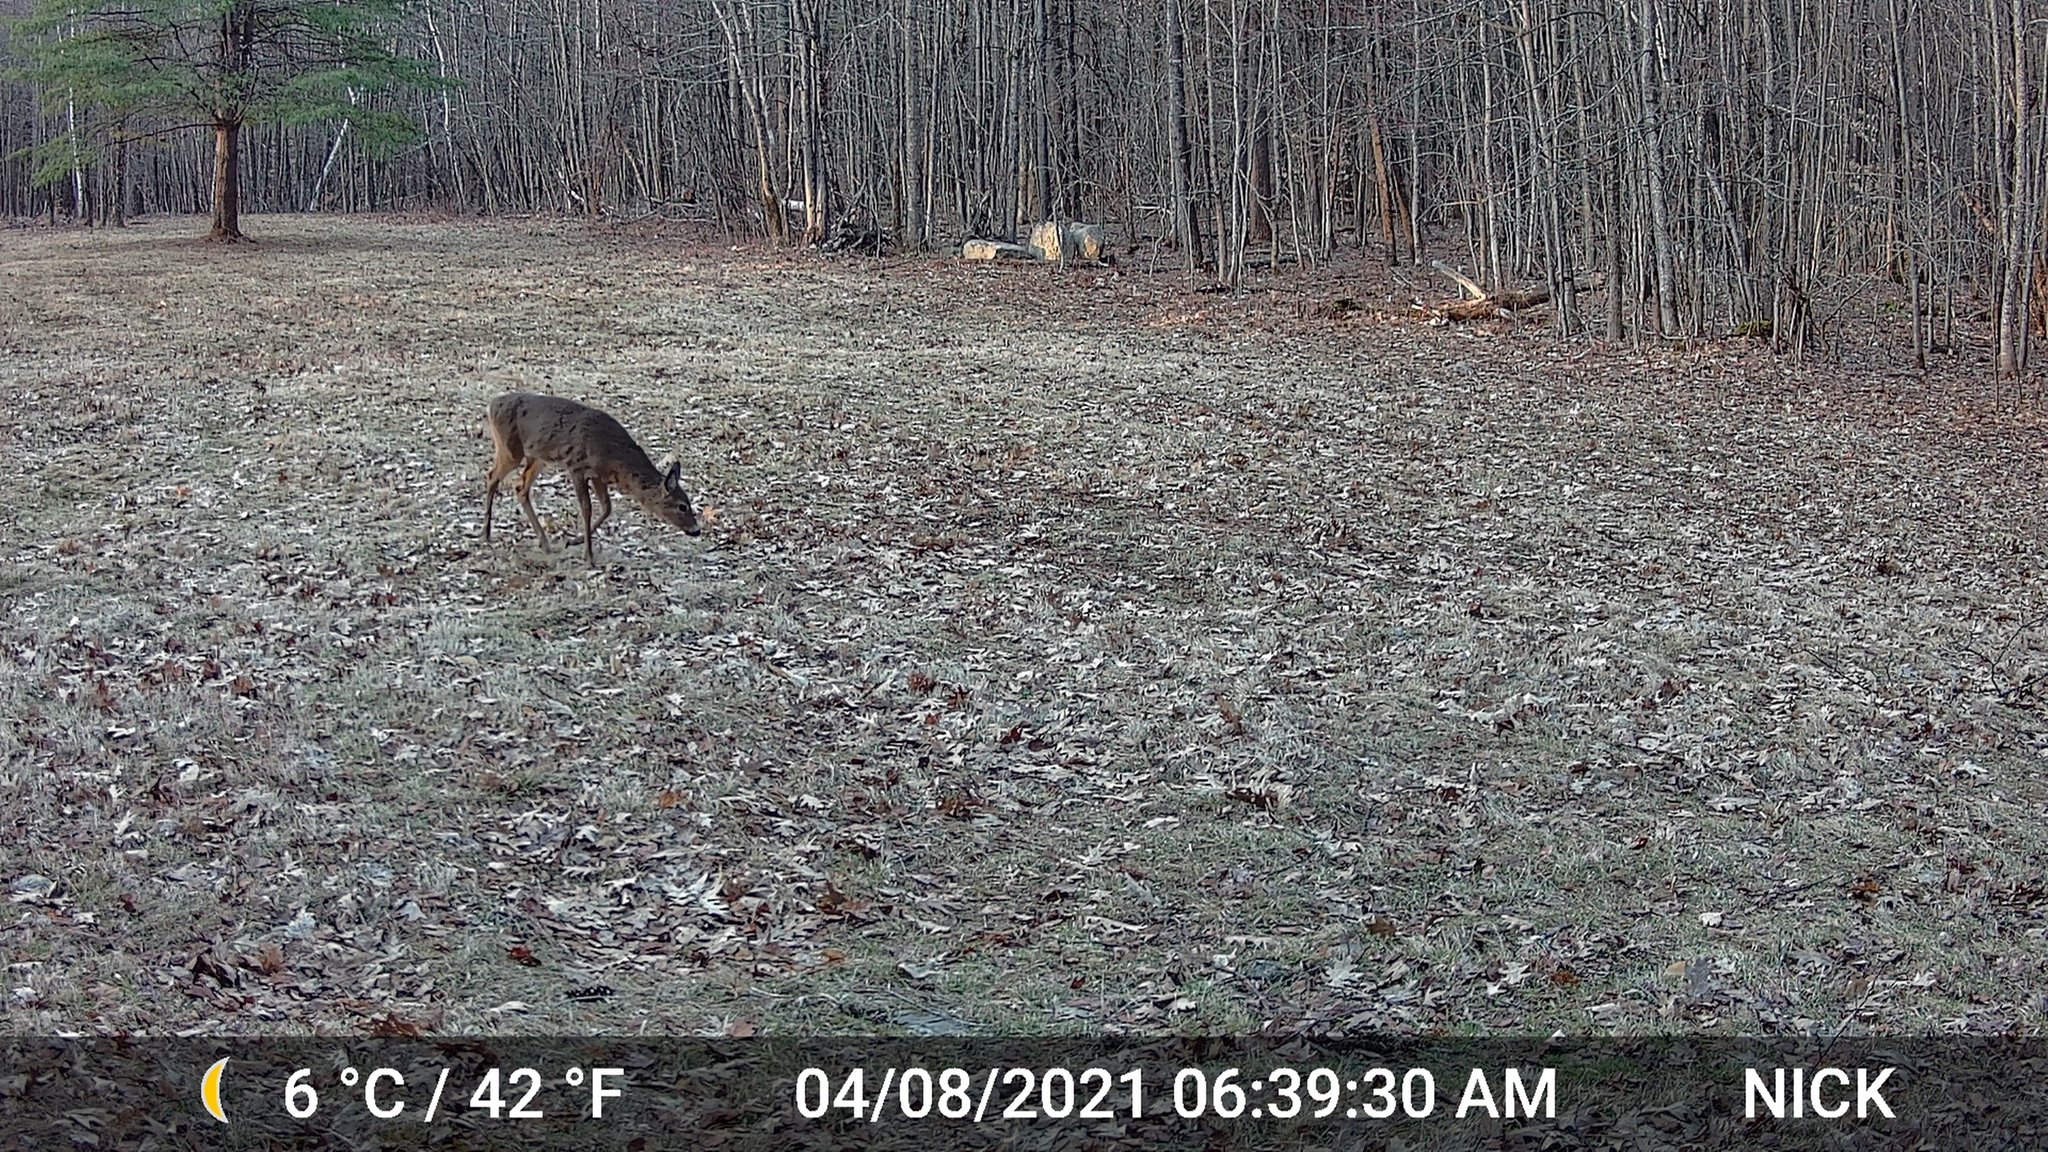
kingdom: Animalia
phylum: Chordata
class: Mammalia
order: Artiodactyla
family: Cervidae
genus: Odocoileus
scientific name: Odocoileus virginianus
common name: White-tailed deer
